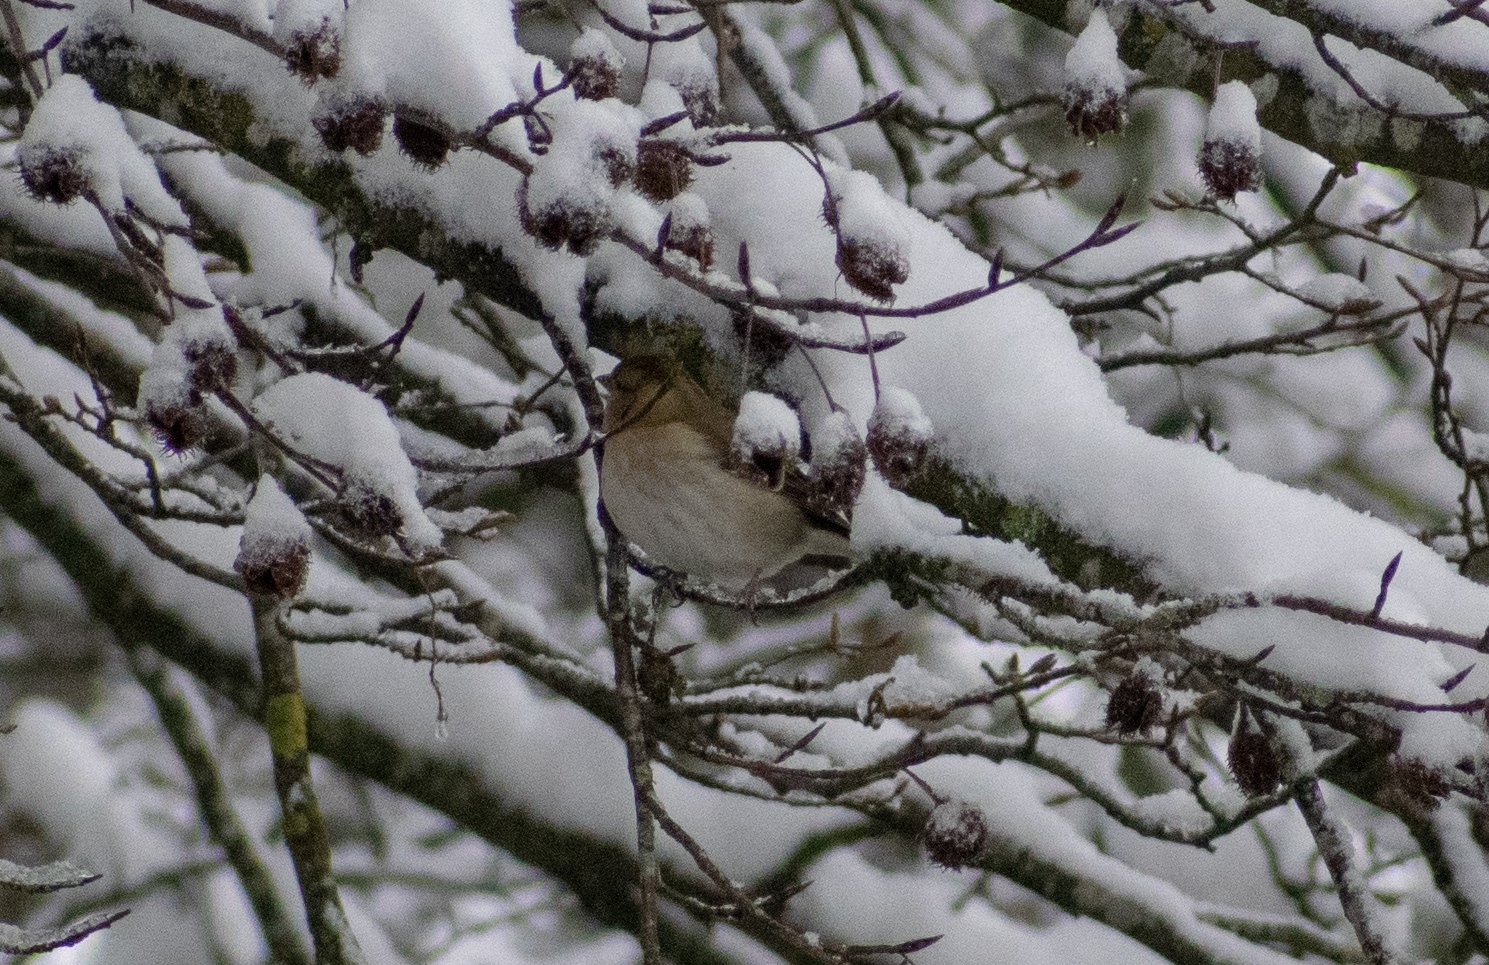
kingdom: Animalia
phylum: Chordata
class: Aves
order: Passeriformes
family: Fringillidae
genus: Fringilla
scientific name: Fringilla coelebs
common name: Common chaffinch
